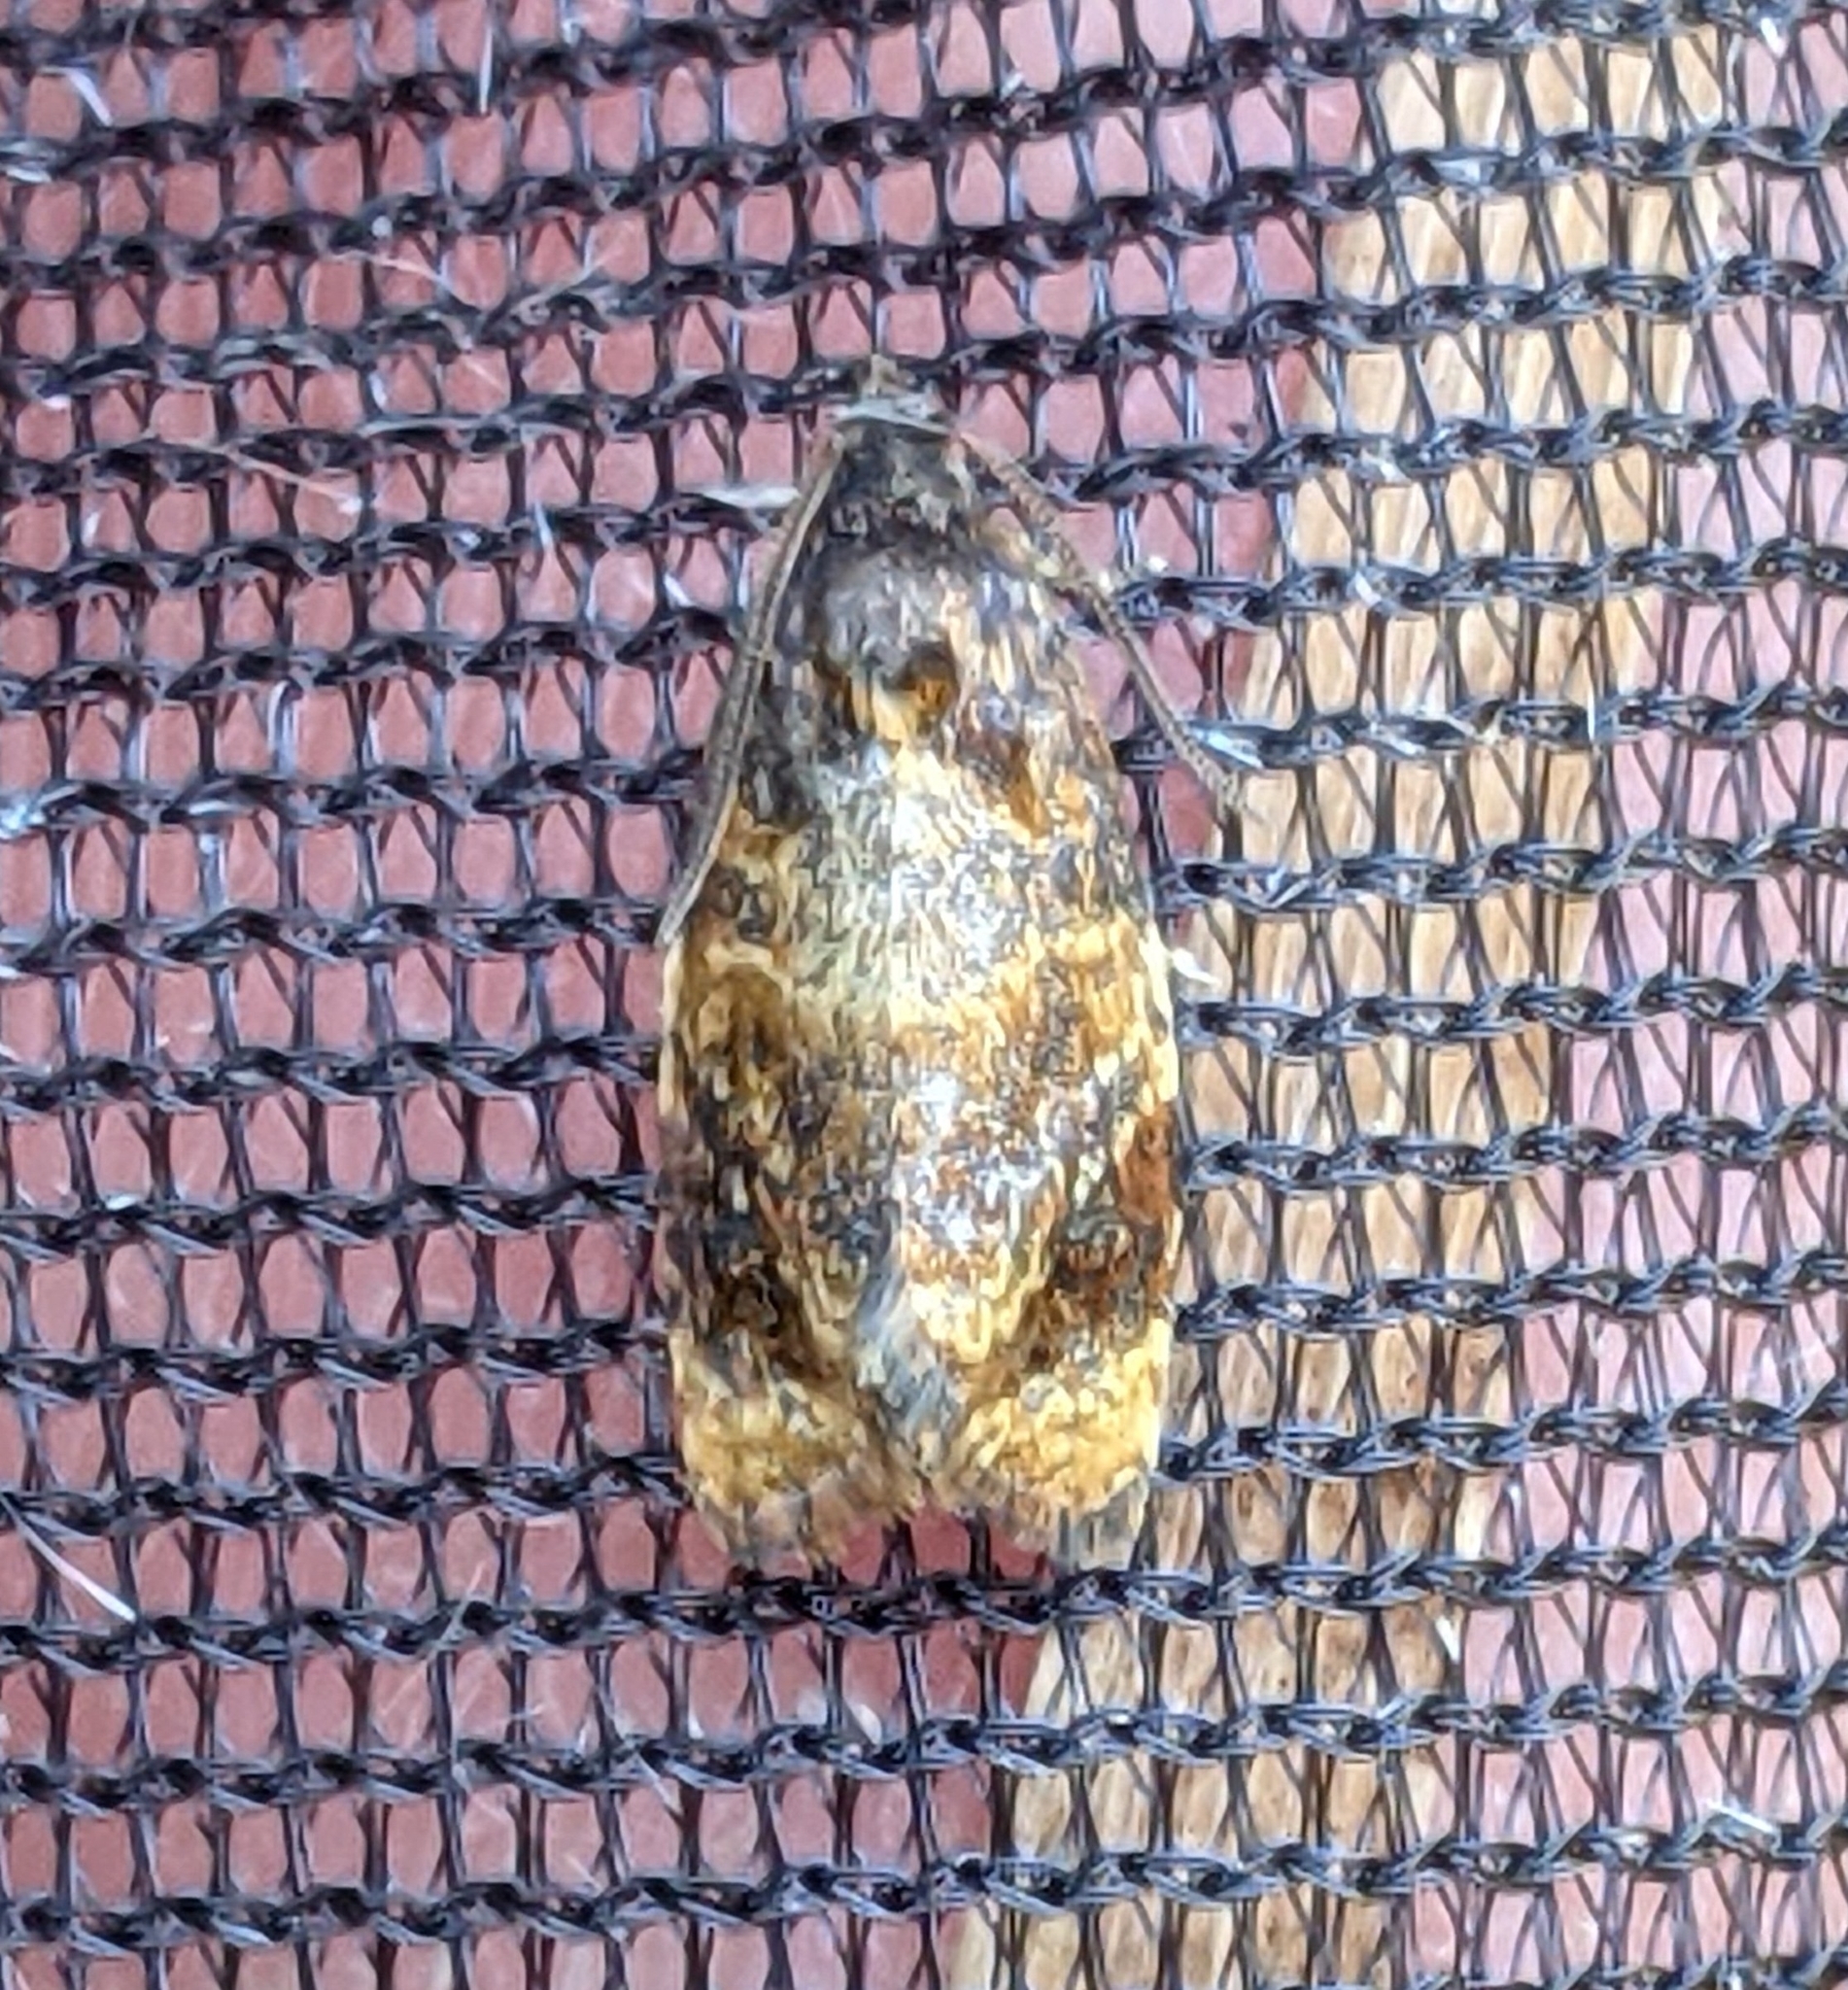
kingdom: Animalia
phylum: Arthropoda
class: Insecta
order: Lepidoptera
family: Tortricidae
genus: Ditula
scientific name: Ditula angustiorana
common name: Red-barred tortrix
